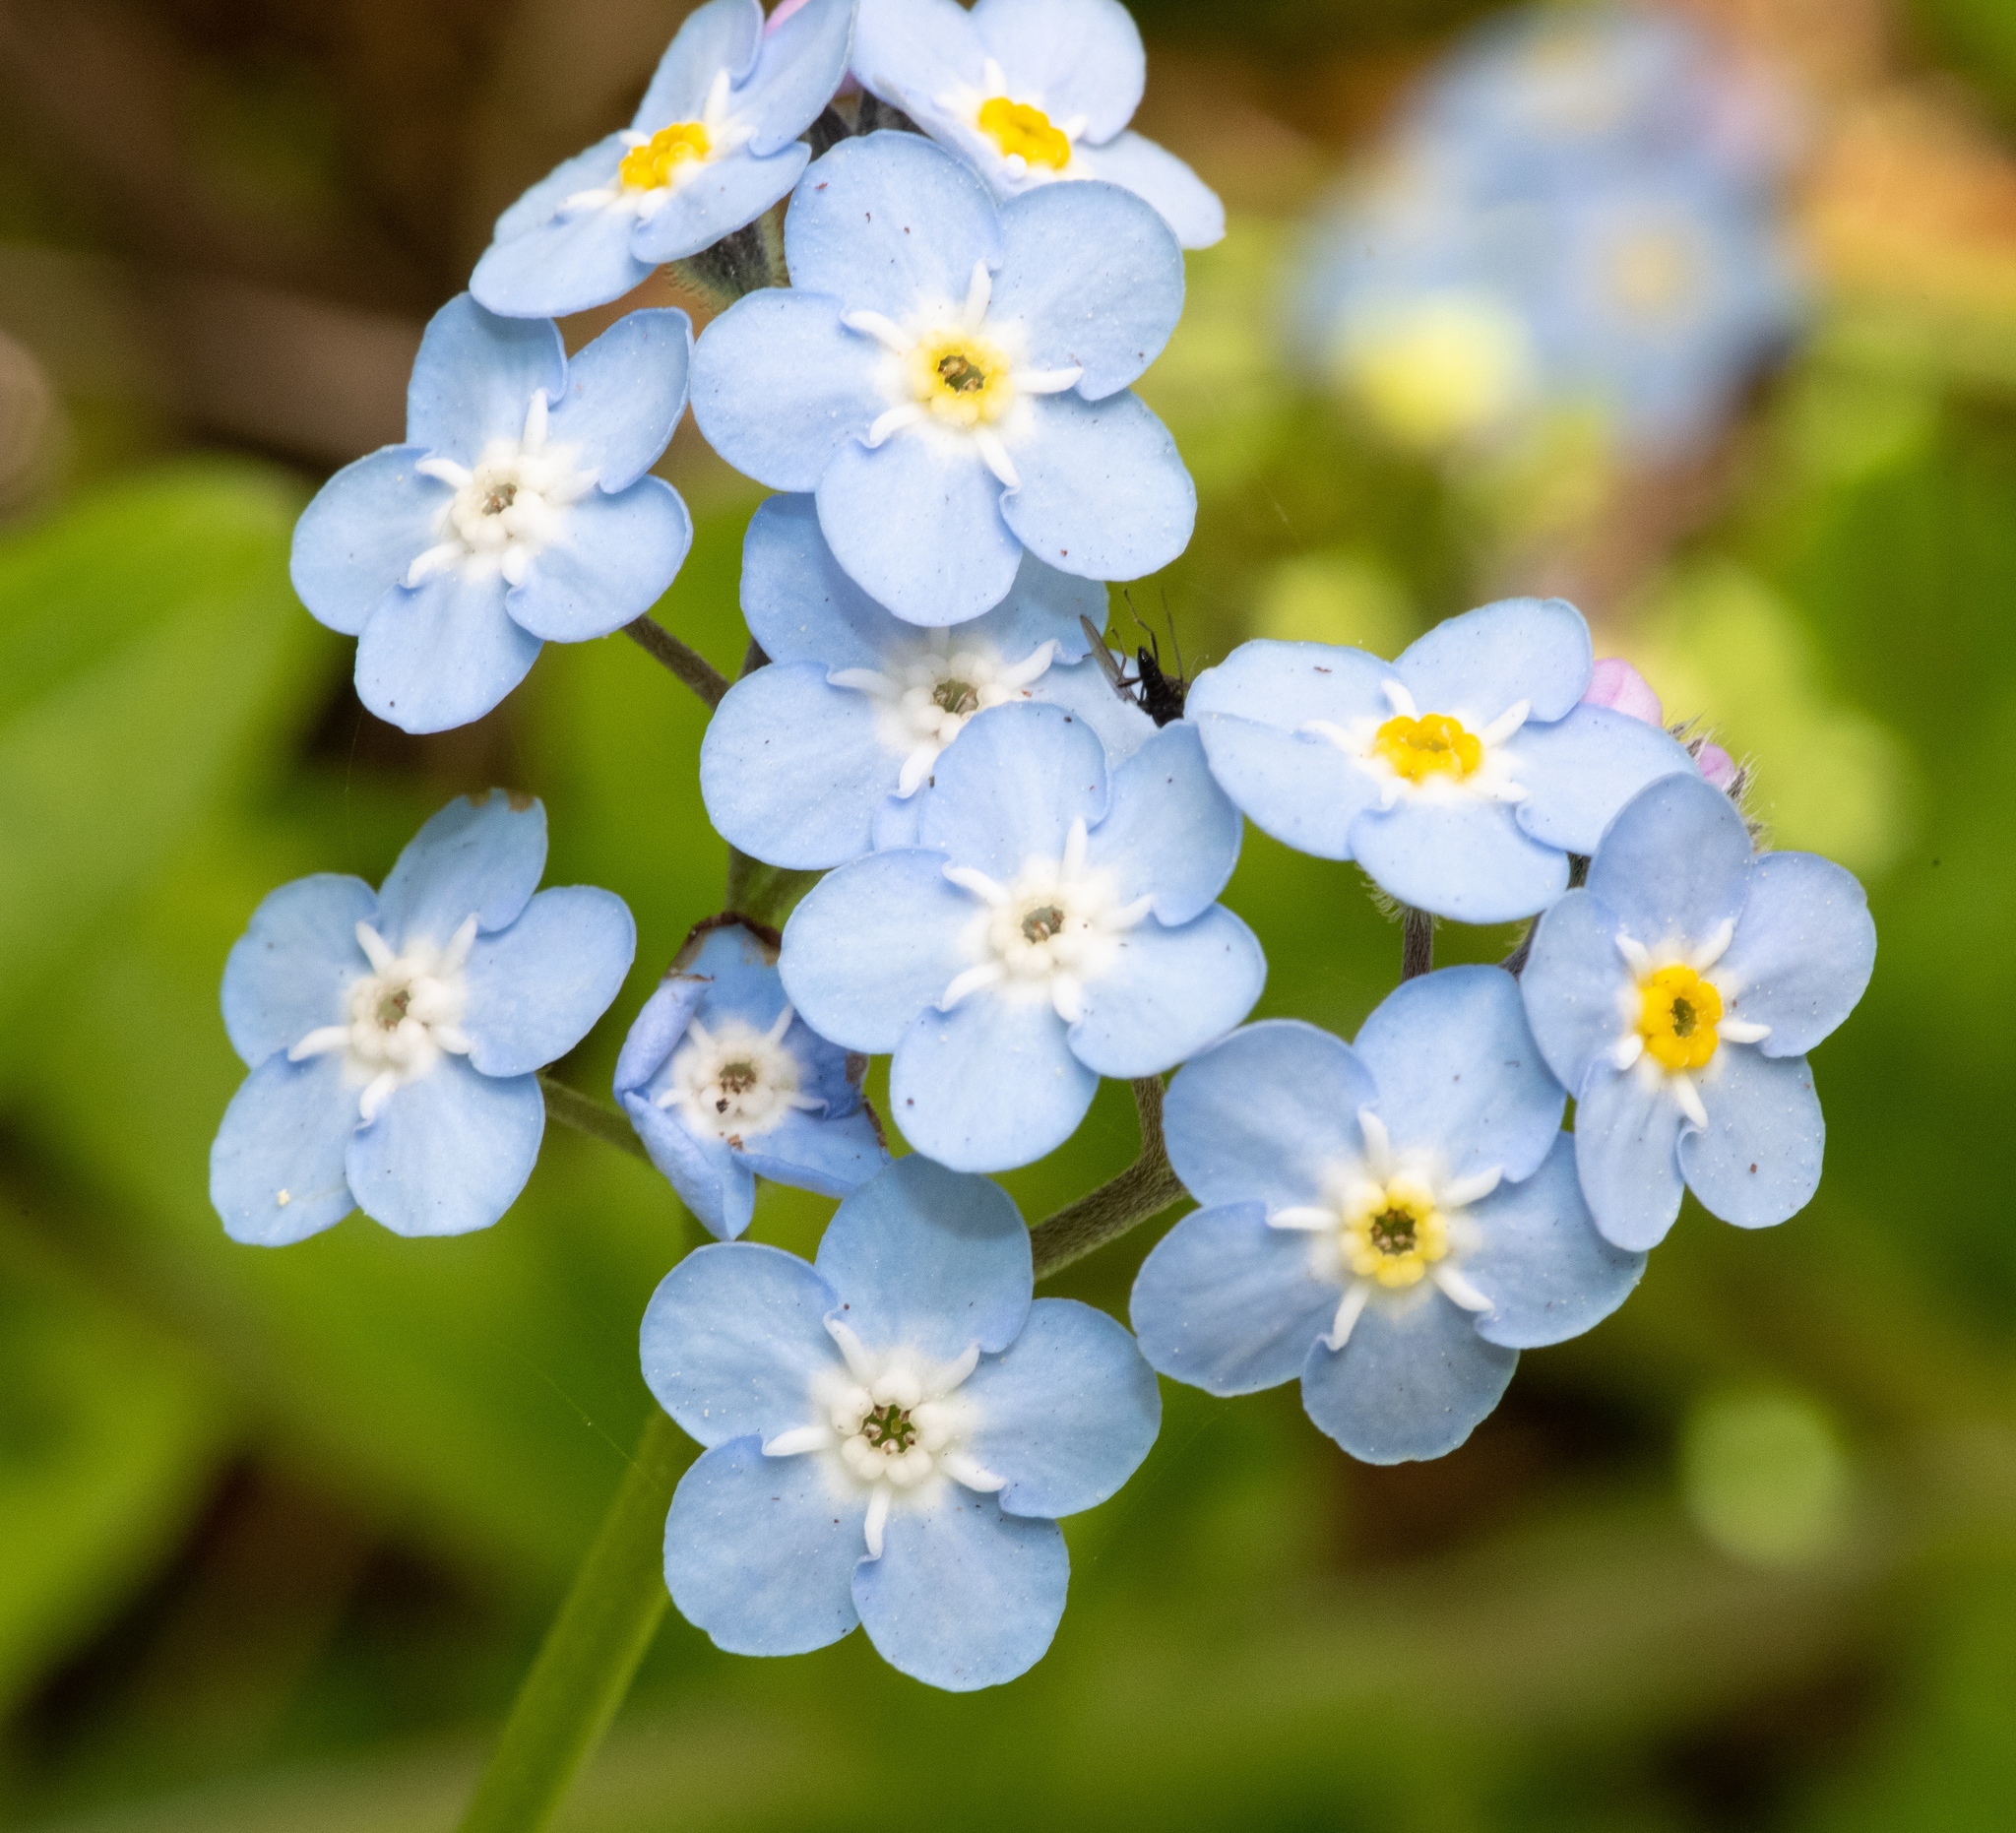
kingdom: Plantae
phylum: Tracheophyta
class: Magnoliopsida
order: Boraginales
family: Boraginaceae
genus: Myosotis
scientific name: Myosotis latifolia
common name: Broadleaf forget-me-not
